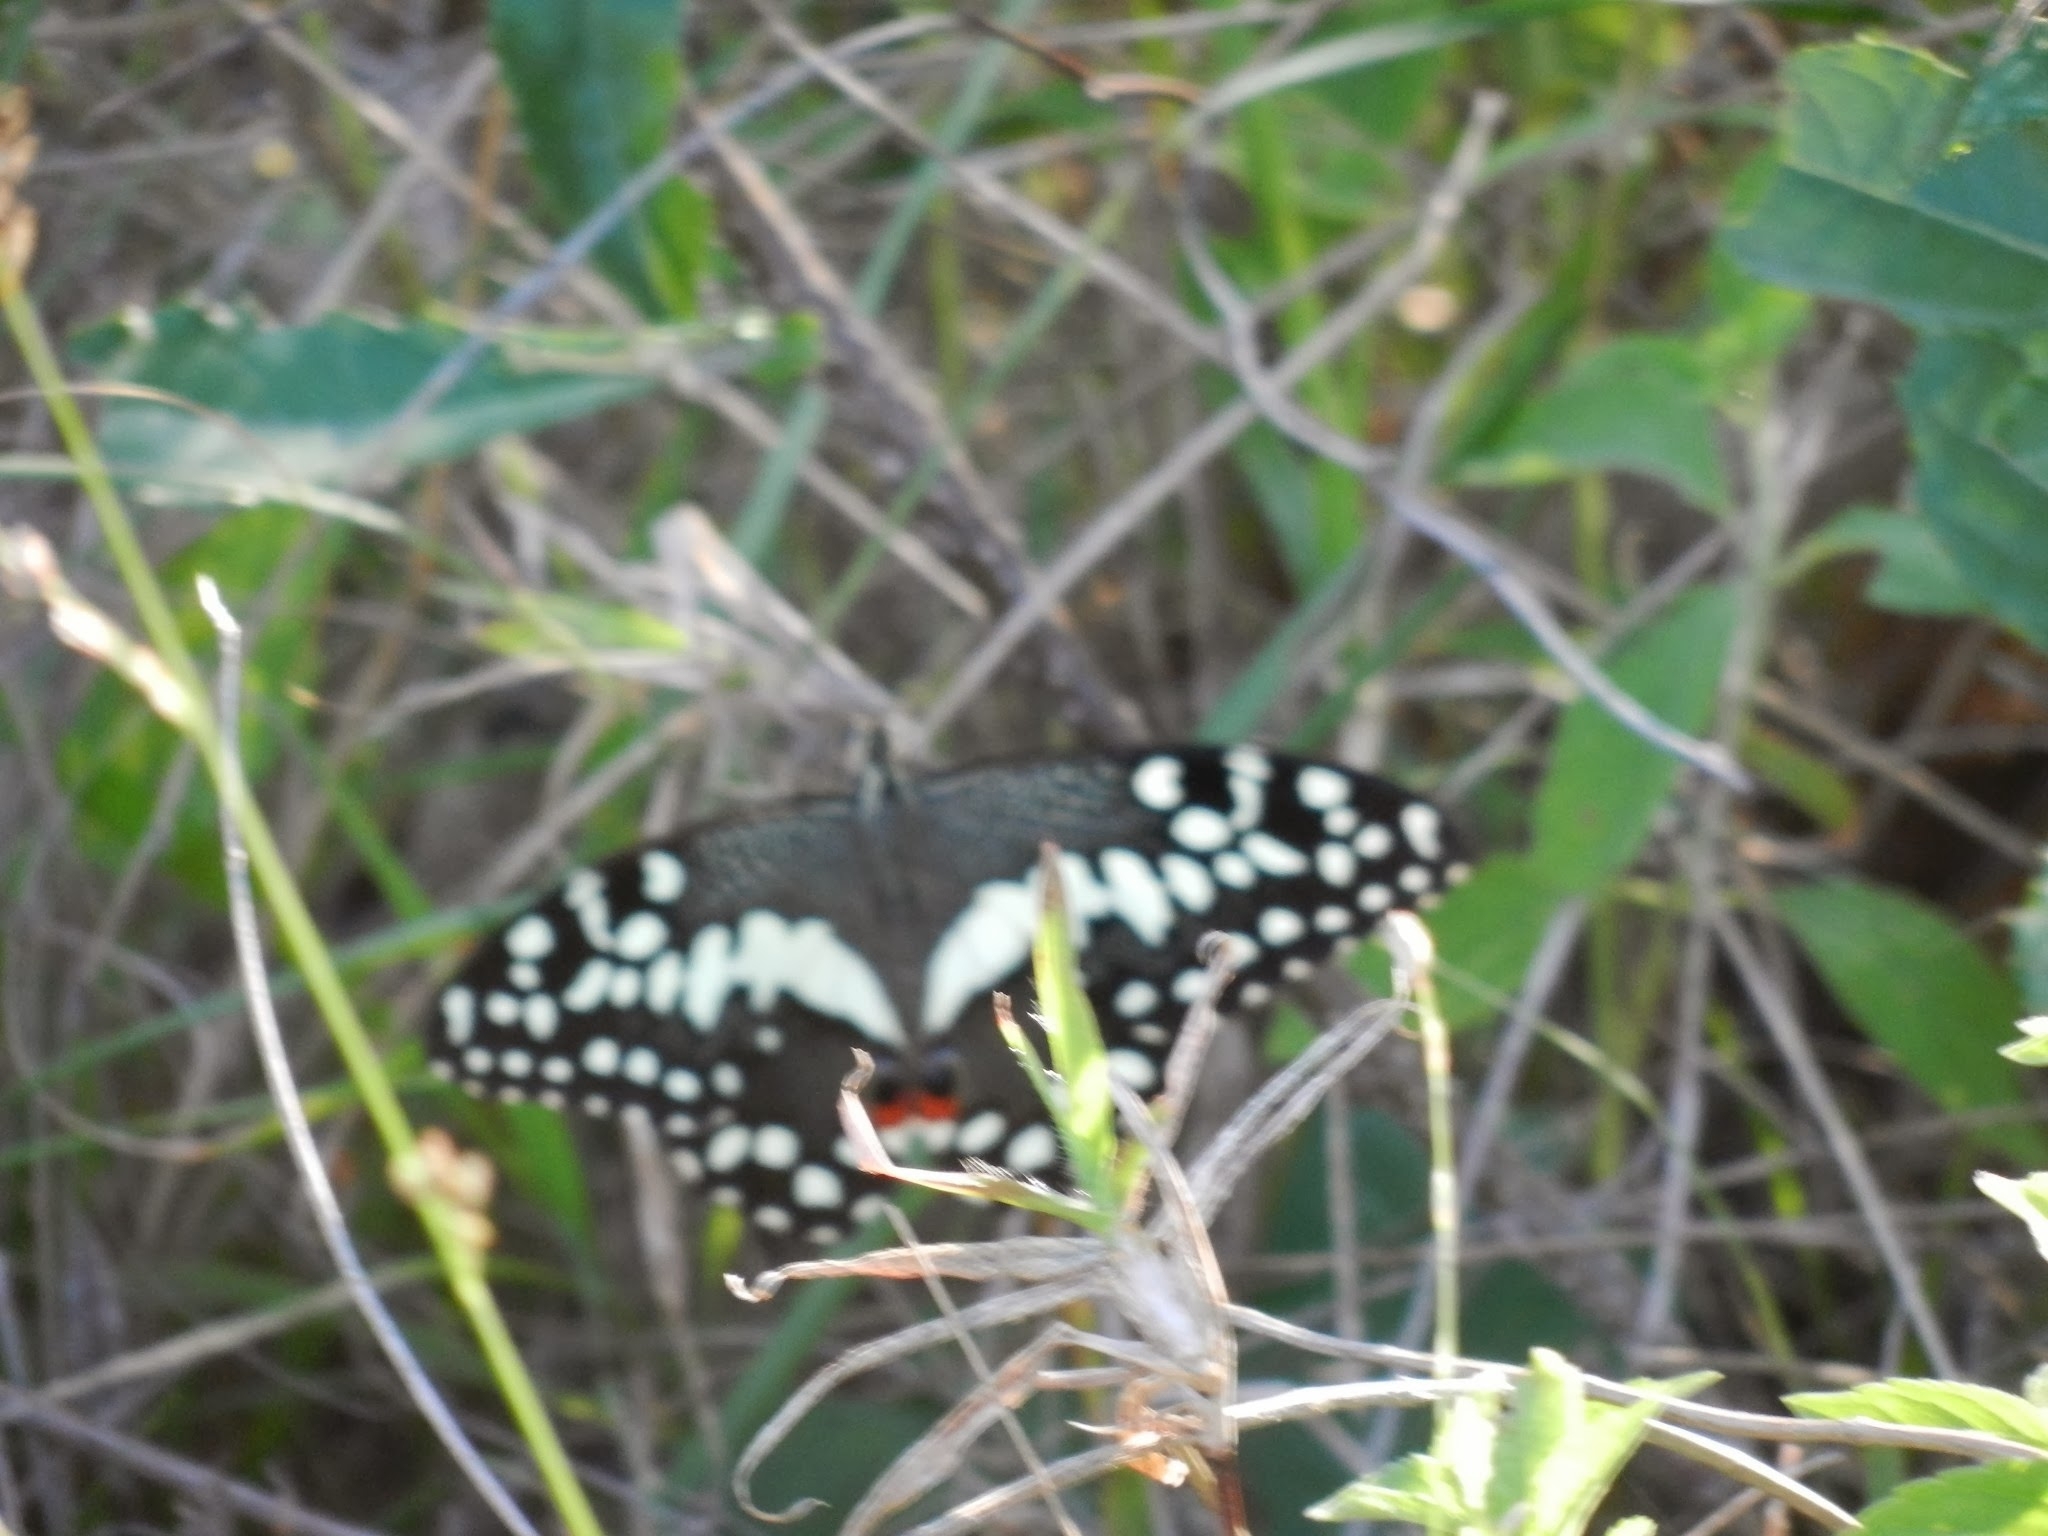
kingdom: Animalia
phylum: Arthropoda
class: Insecta
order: Lepidoptera
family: Papilionidae
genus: Papilio
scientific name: Papilio demodocus
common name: Christmas butterfly
